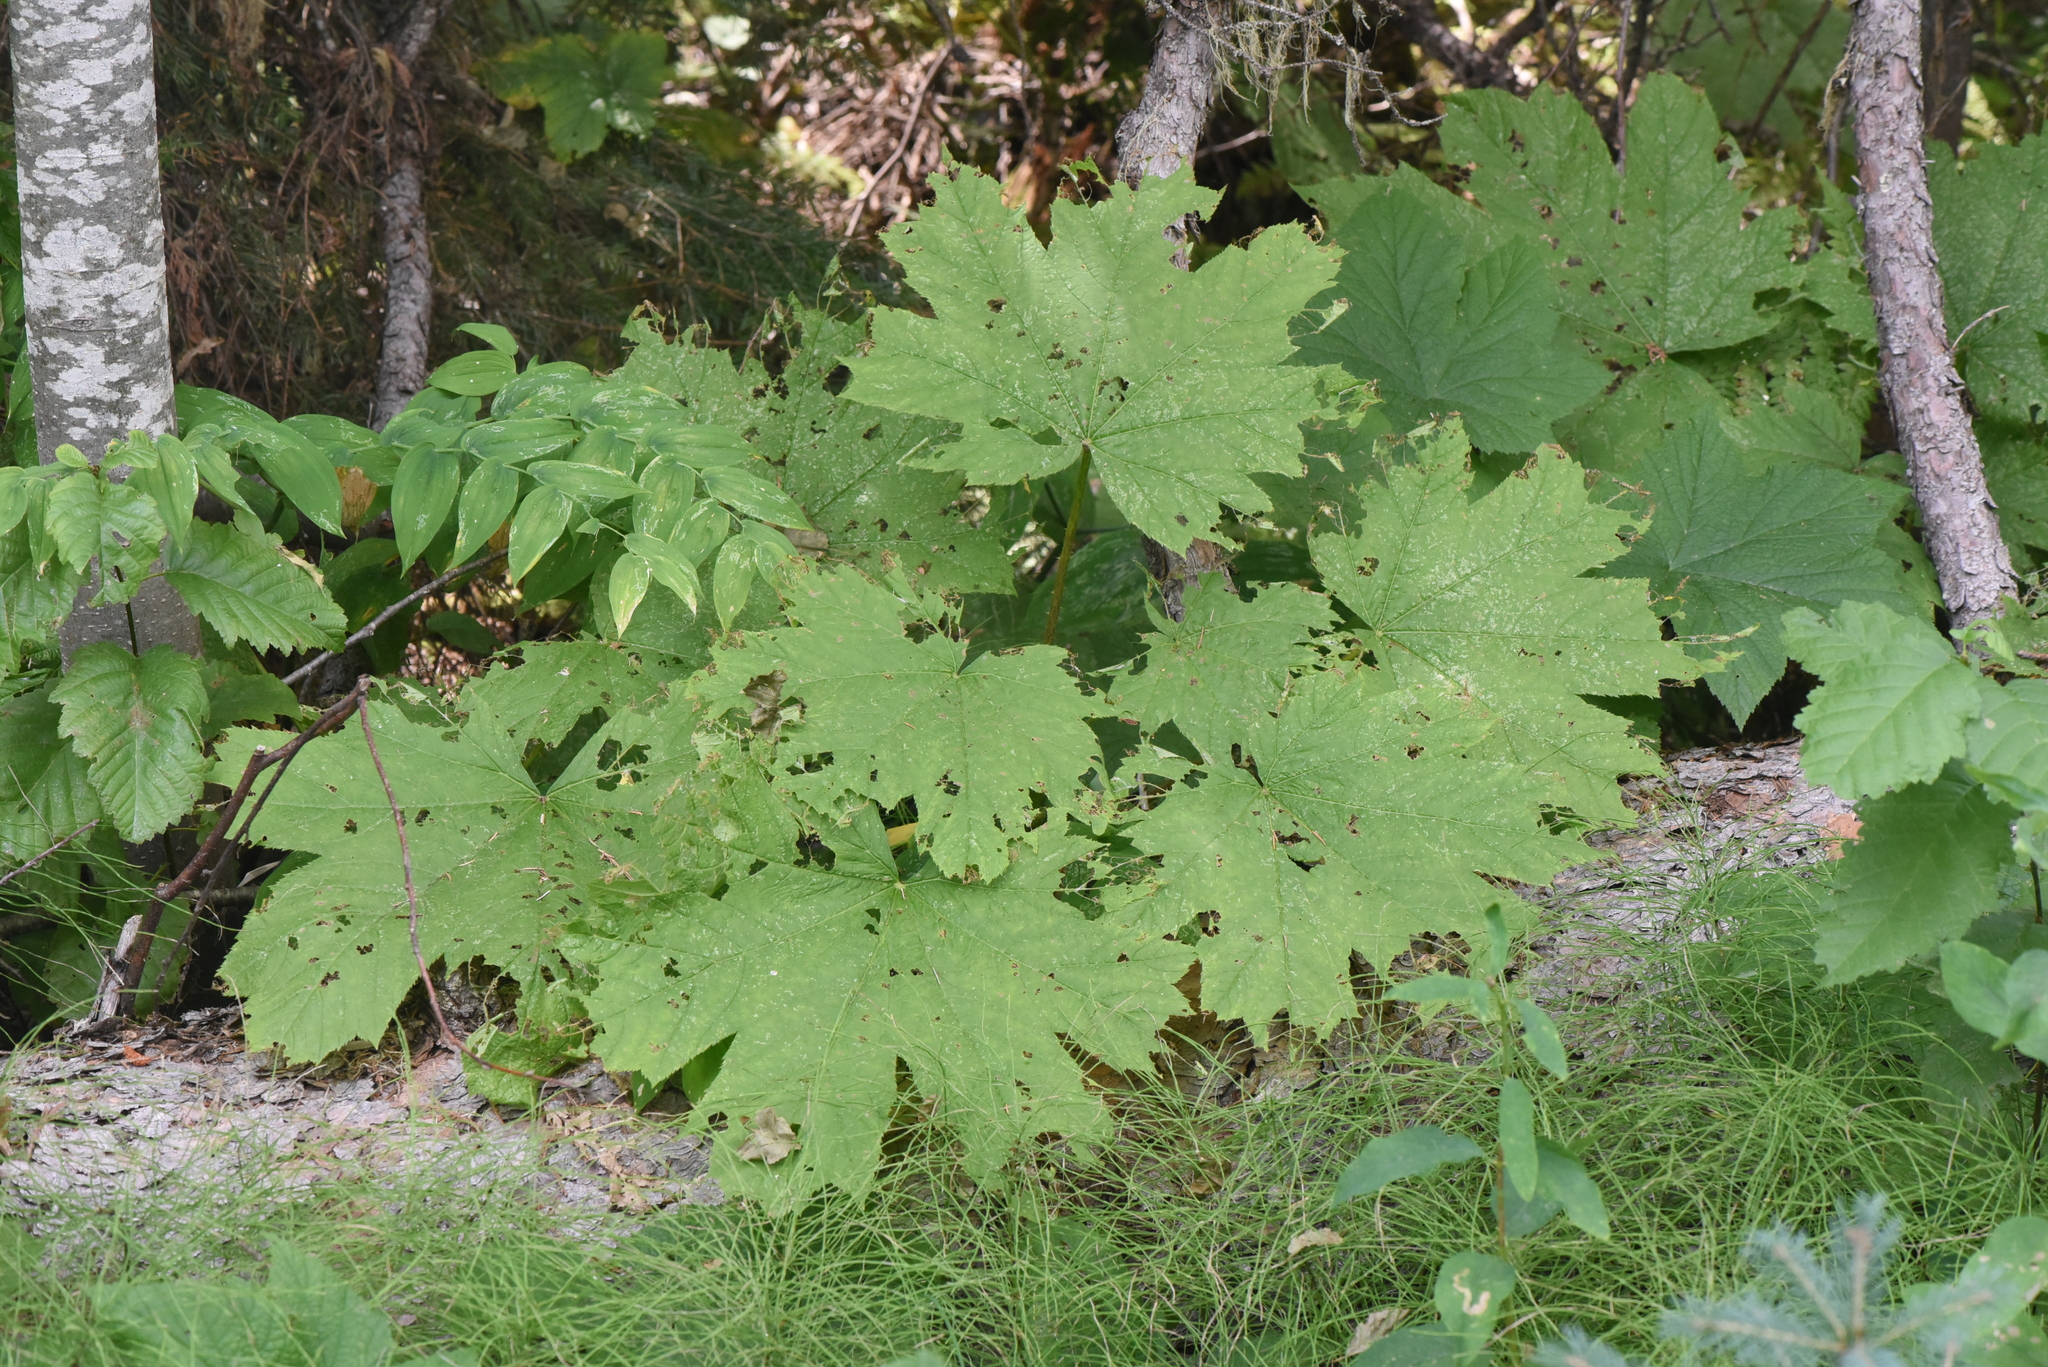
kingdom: Plantae
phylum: Tracheophyta
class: Magnoliopsida
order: Apiales
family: Araliaceae
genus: Oplopanax
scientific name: Oplopanax horridus
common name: Devil's walking-stick
